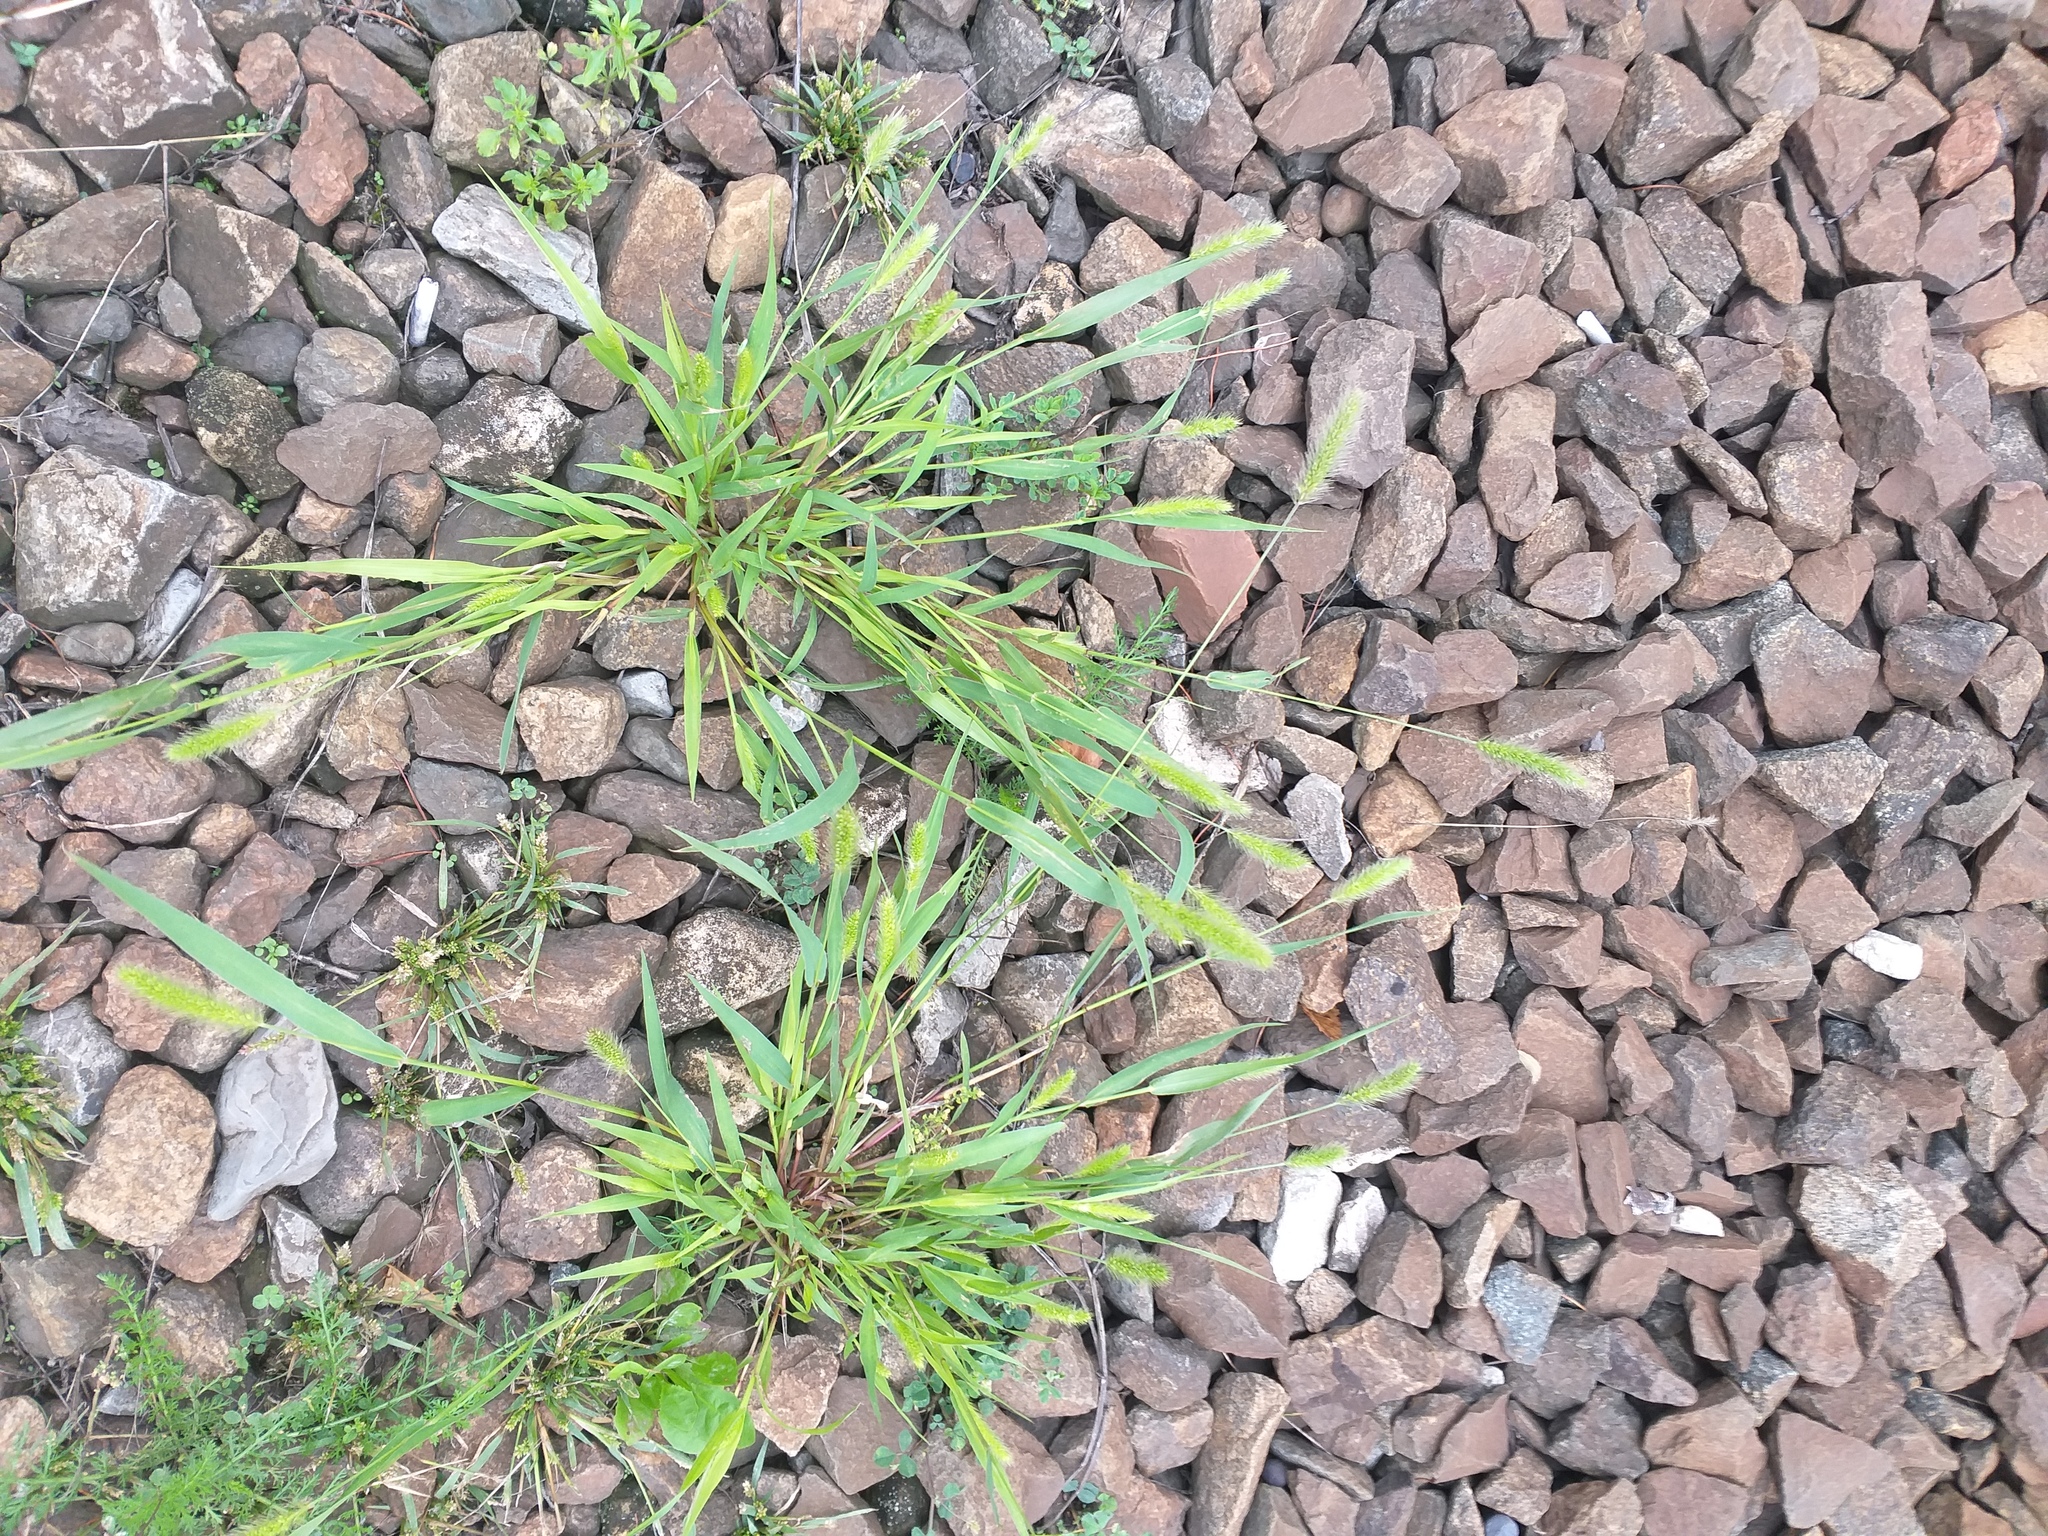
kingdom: Plantae
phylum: Tracheophyta
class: Liliopsida
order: Poales
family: Poaceae
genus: Setaria
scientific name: Setaria viridis
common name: Green bristlegrass
